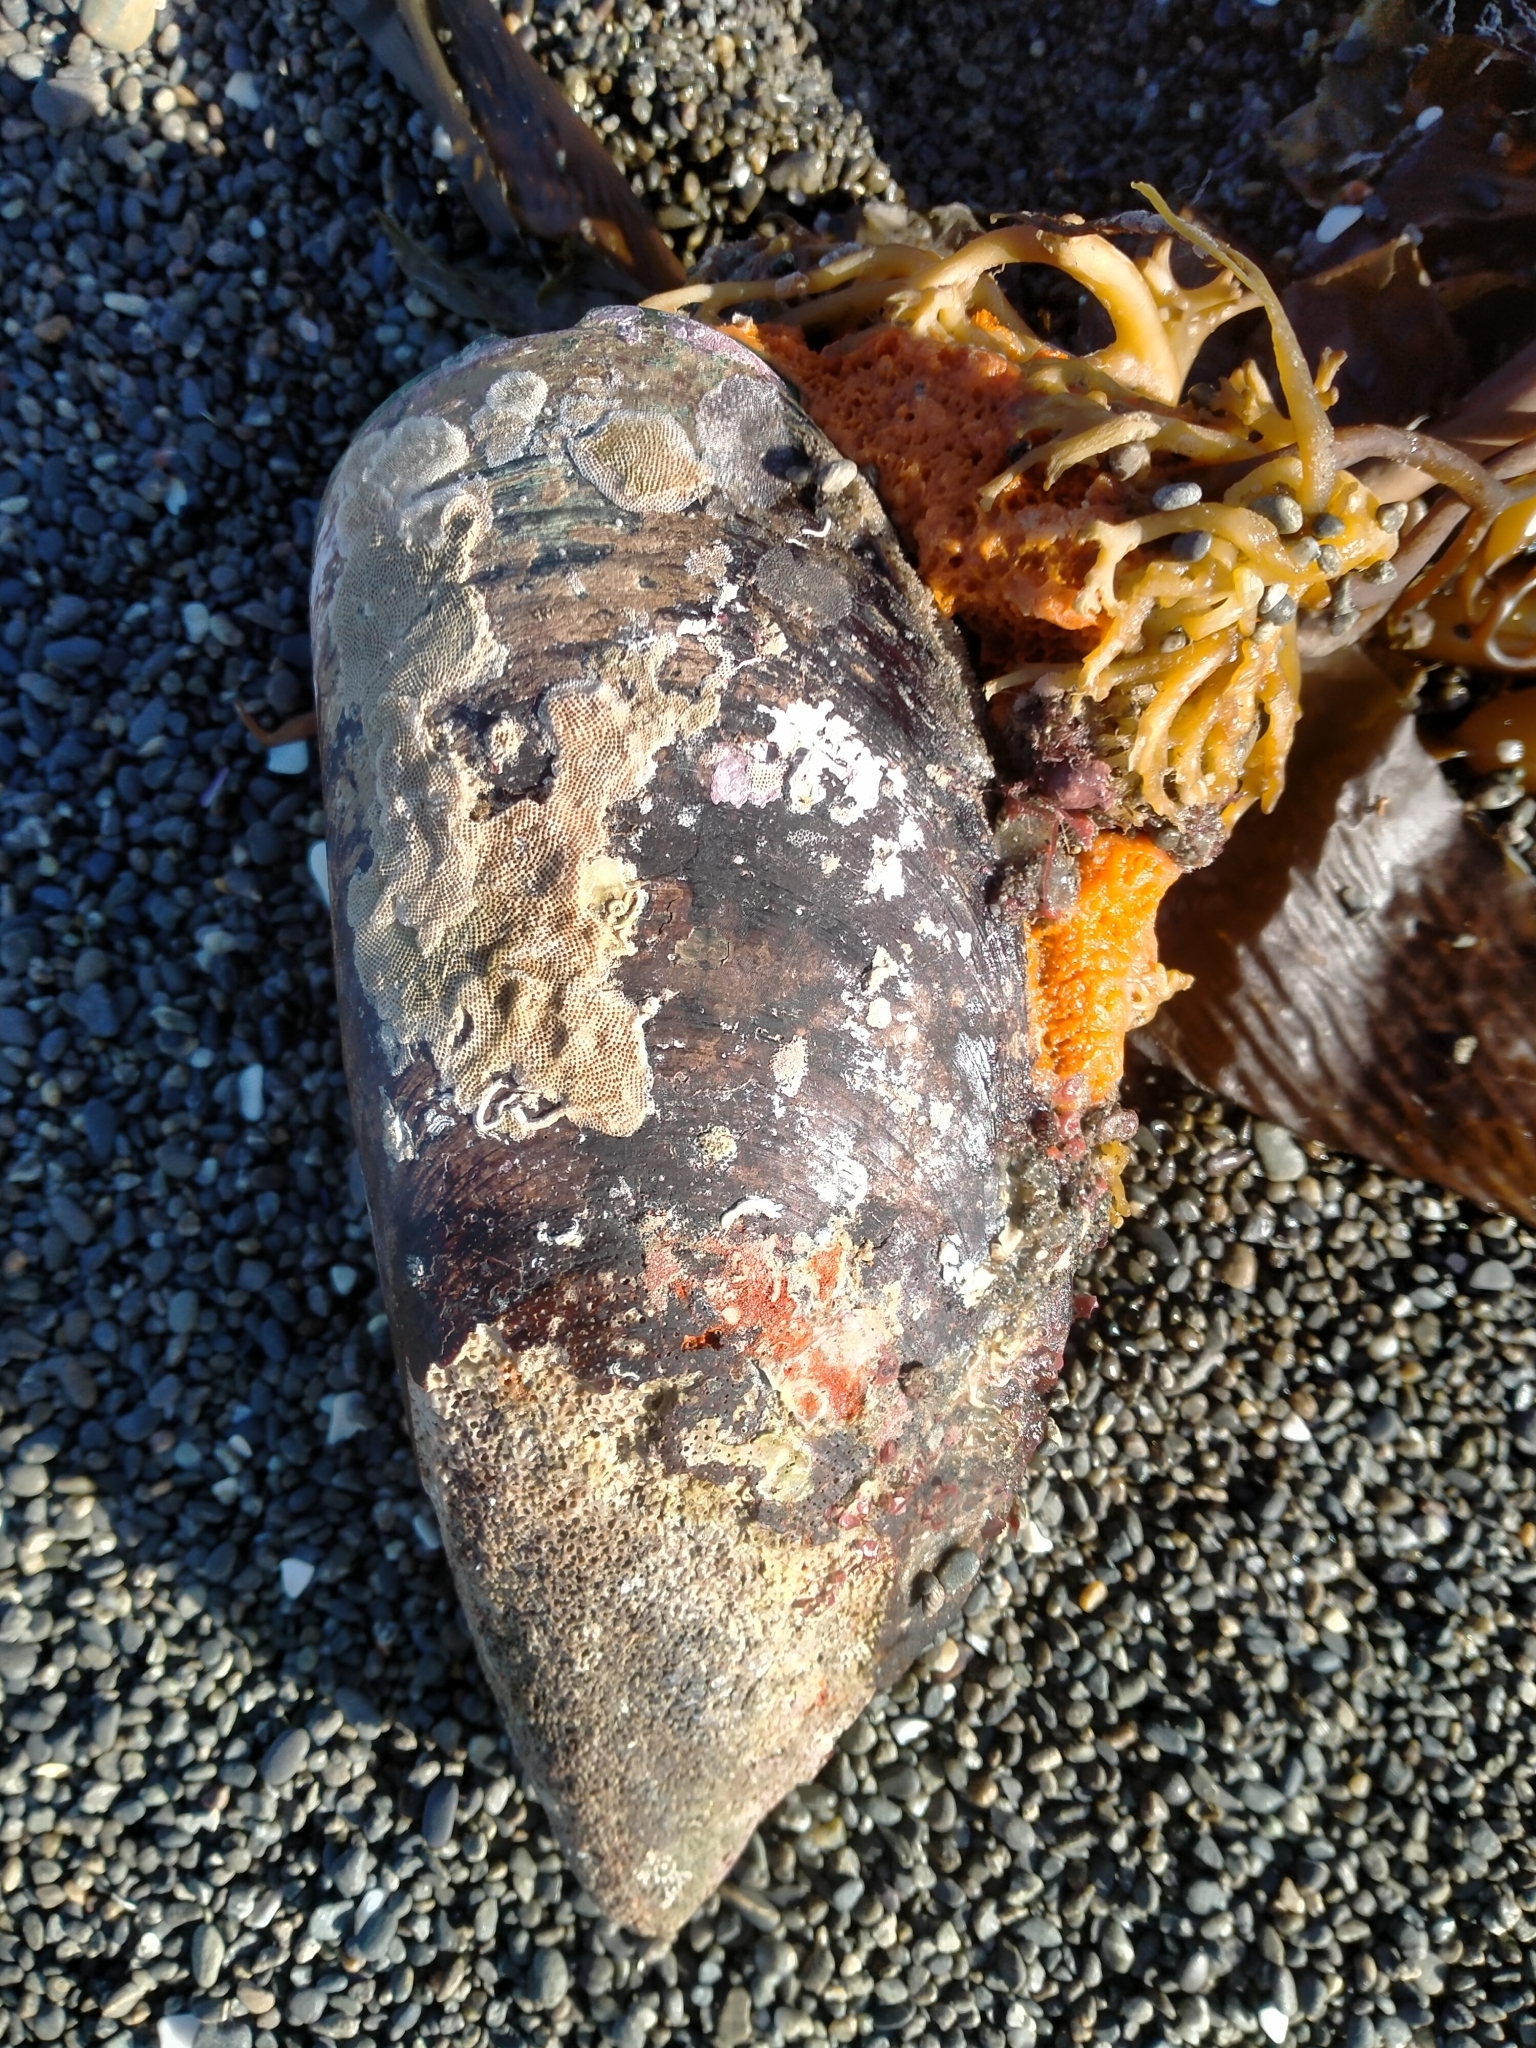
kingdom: Animalia
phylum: Mollusca
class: Bivalvia
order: Mytilida
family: Mytilidae
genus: Perna
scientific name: Perna canaliculus
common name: New zealand greenshelltm
